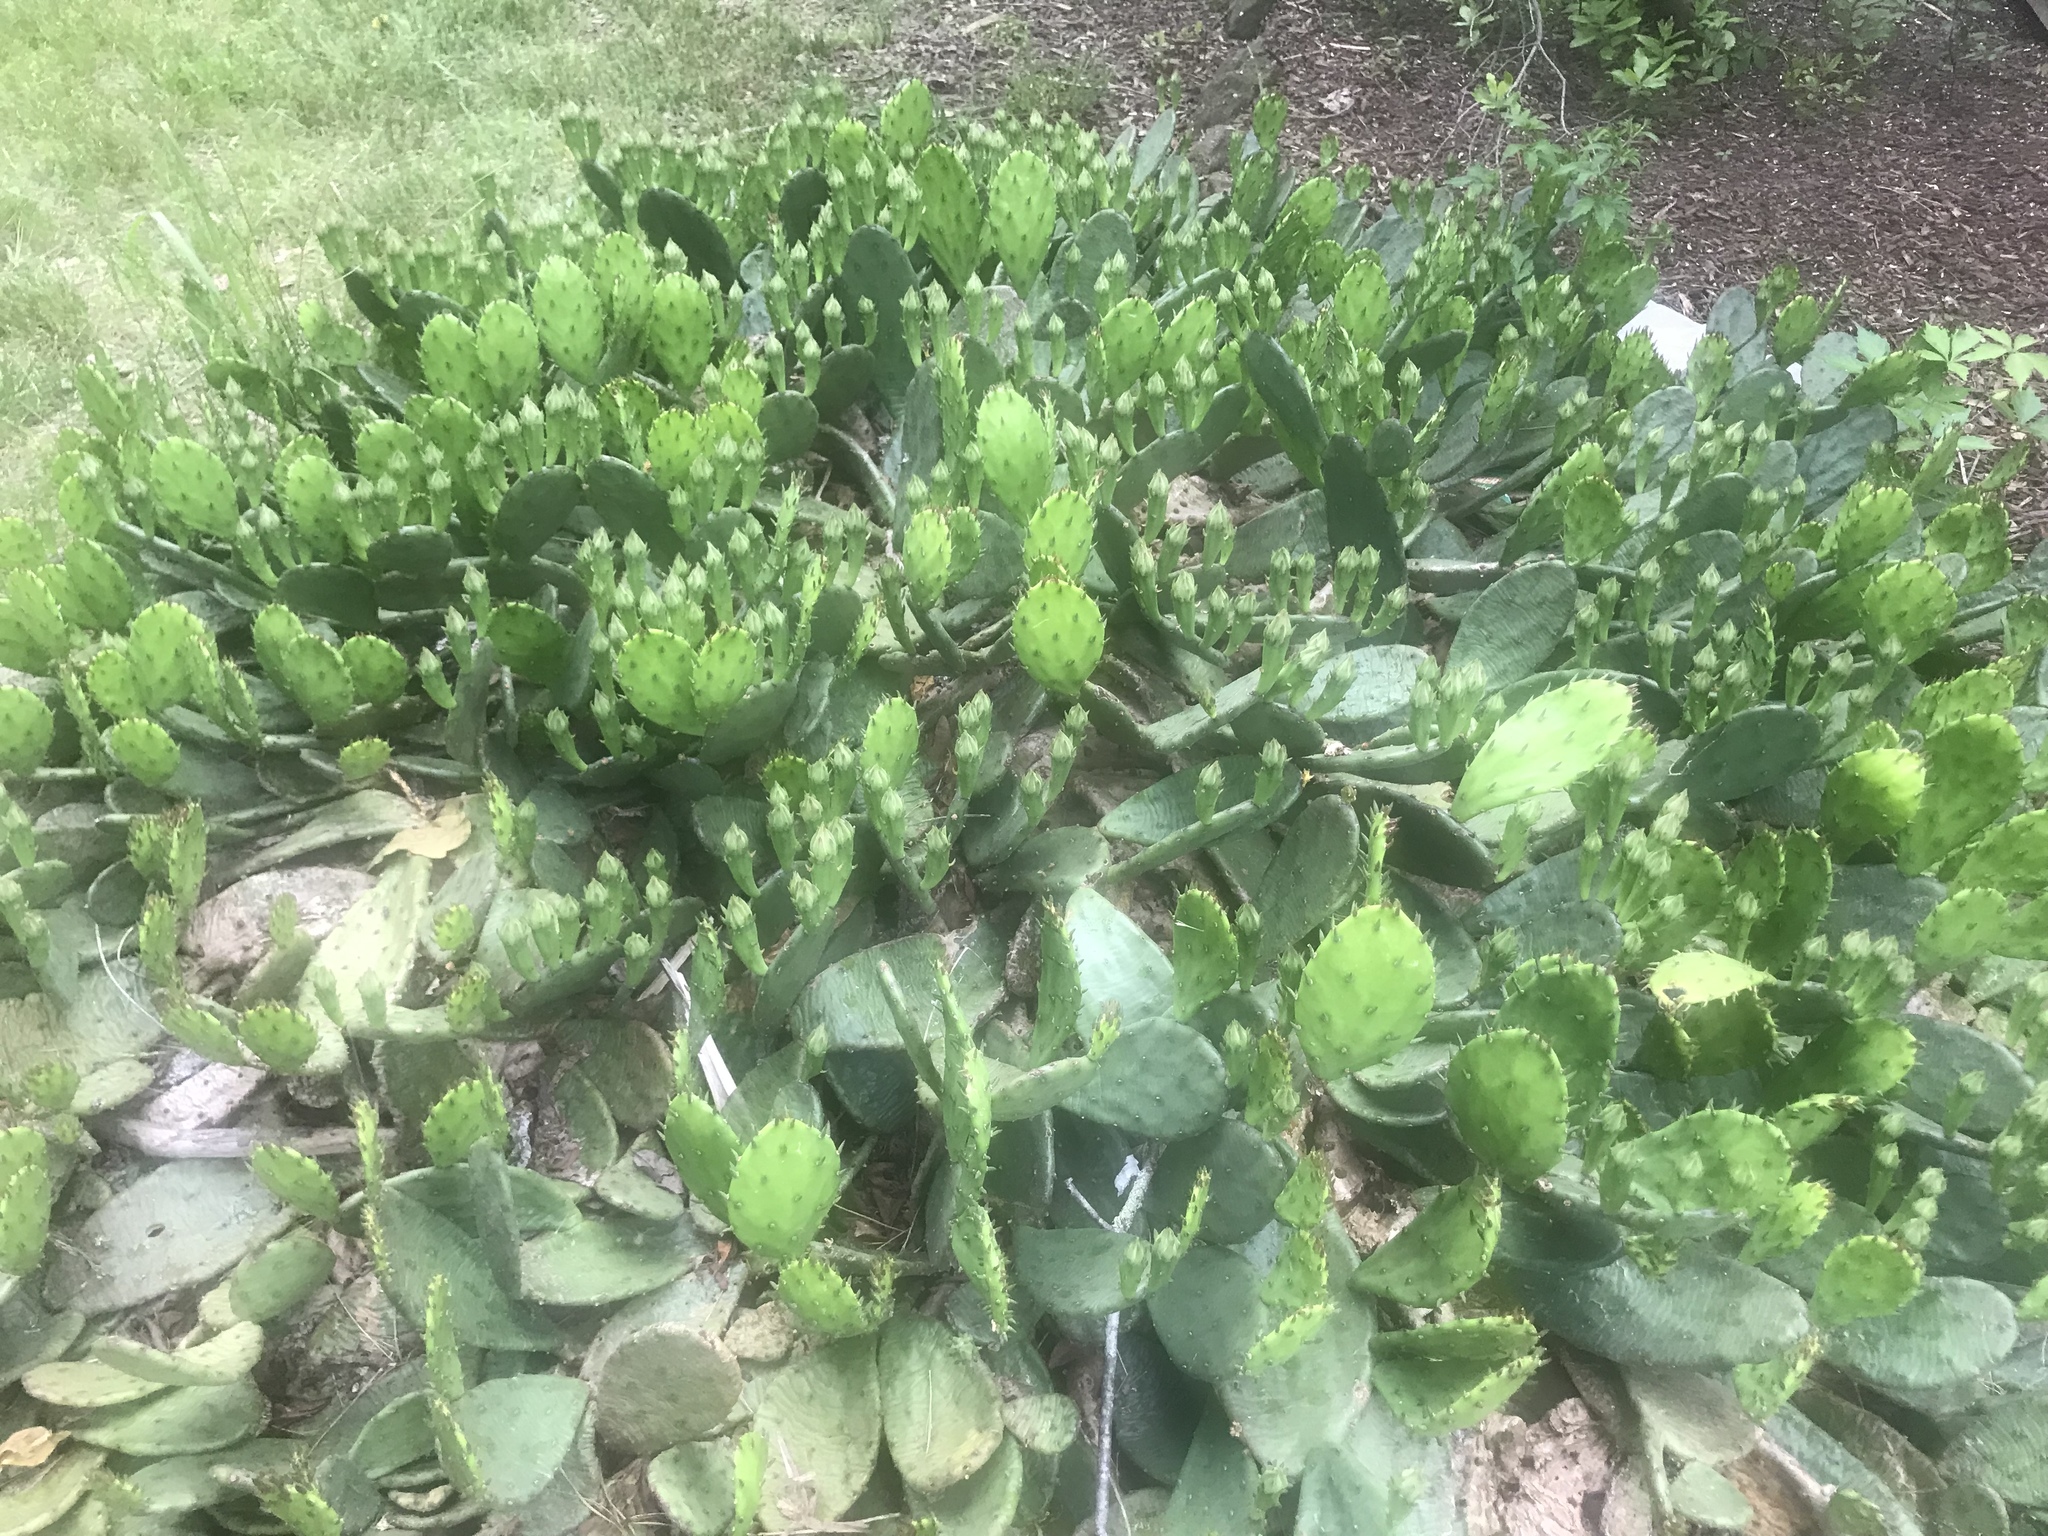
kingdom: Plantae
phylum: Tracheophyta
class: Magnoliopsida
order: Caryophyllales
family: Cactaceae
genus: Opuntia
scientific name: Opuntia humifusa
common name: Eastern prickly-pear
